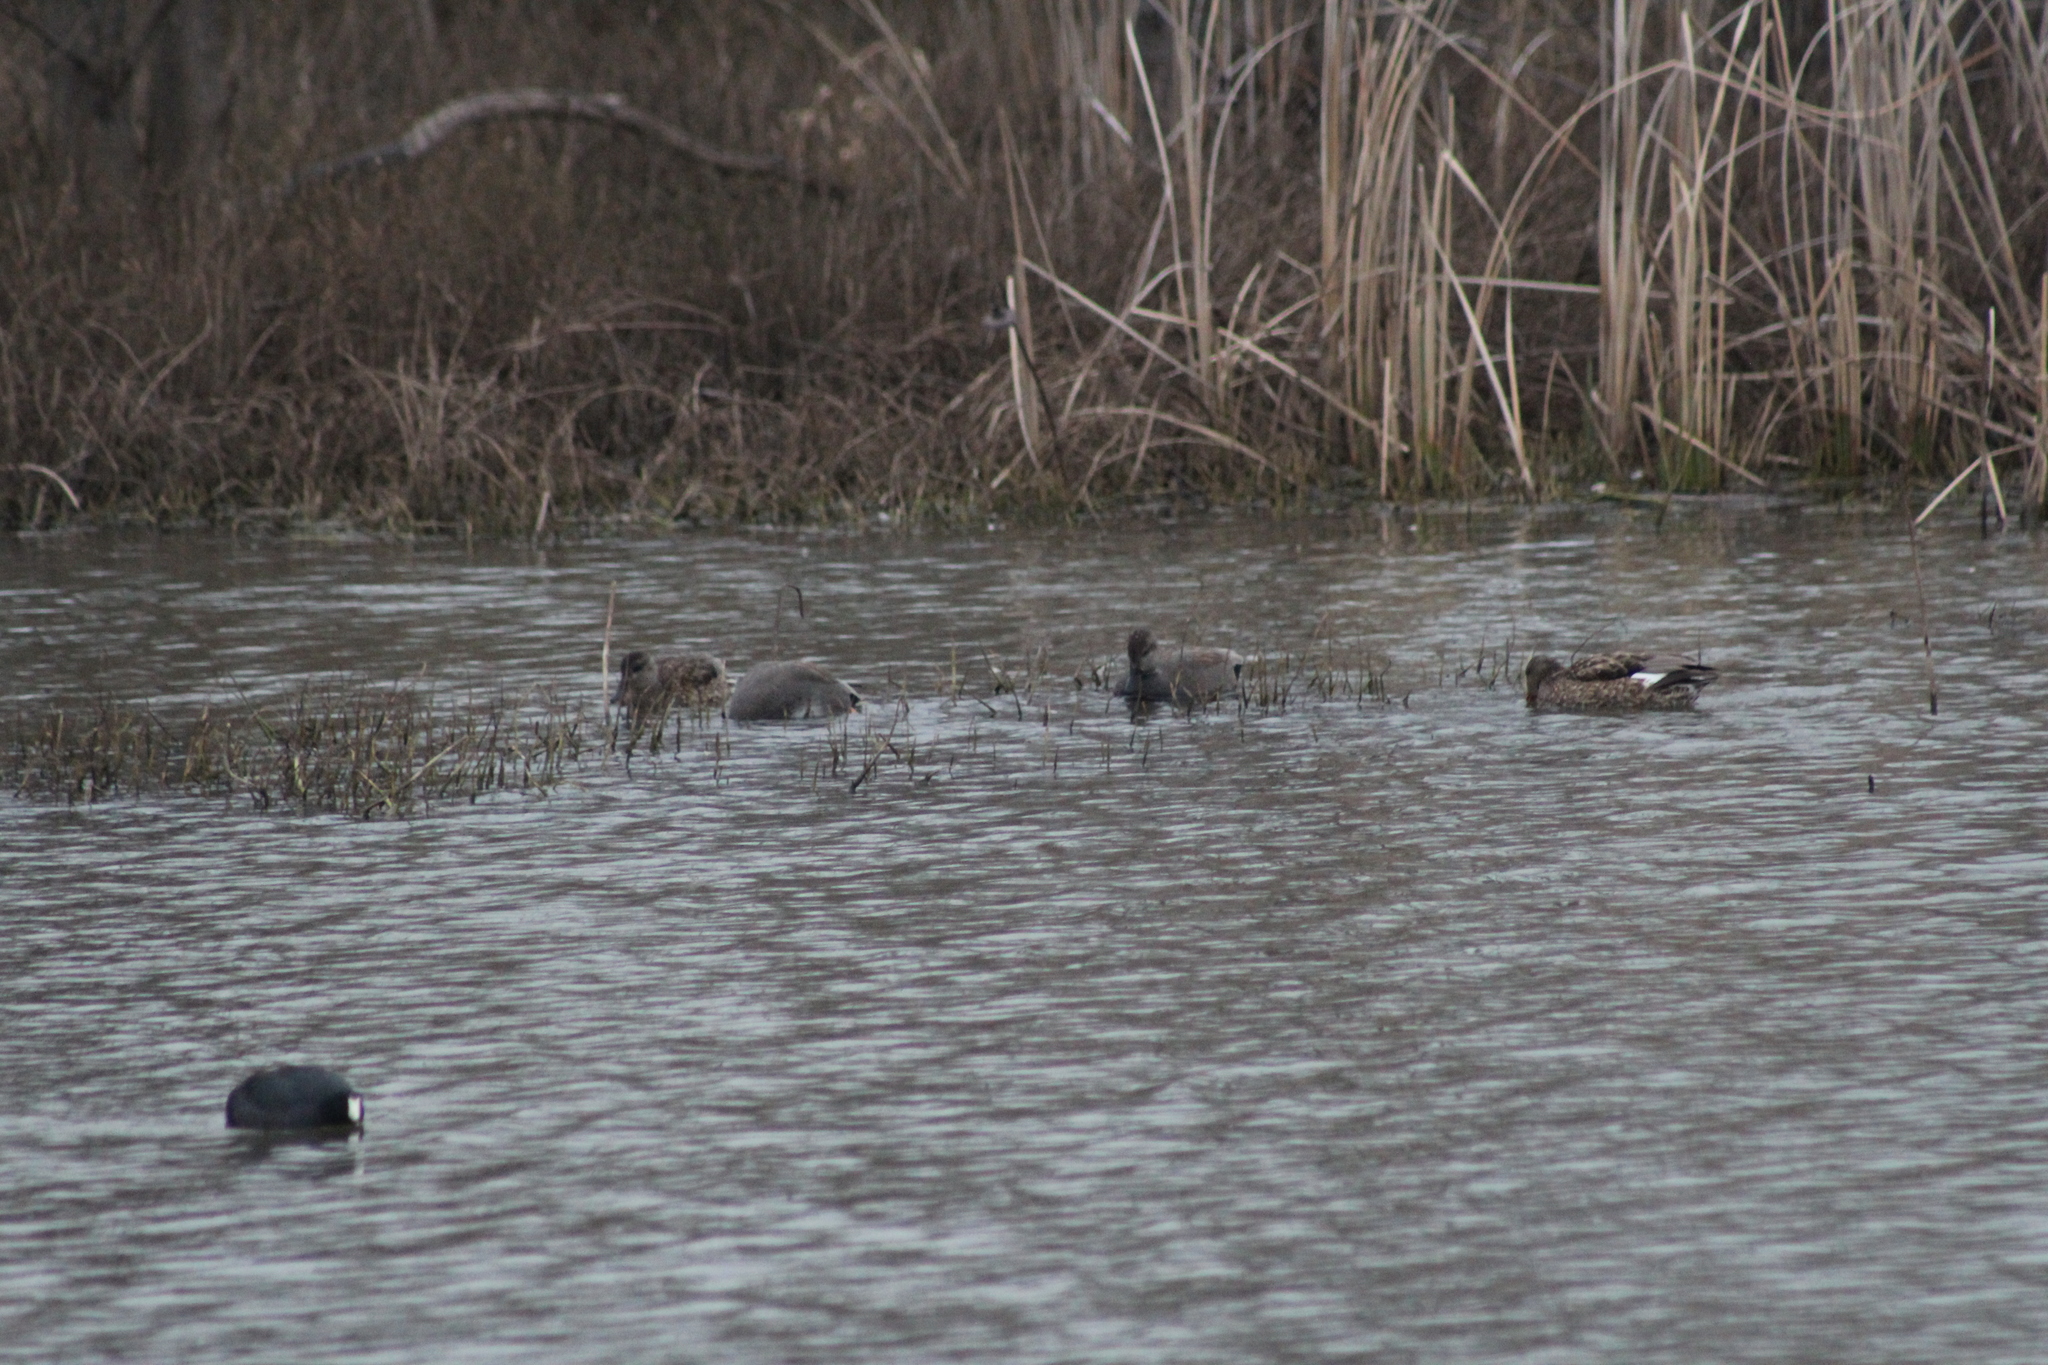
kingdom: Animalia
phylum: Chordata
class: Aves
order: Anseriformes
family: Anatidae
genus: Mareca
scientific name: Mareca strepera
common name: Gadwall
